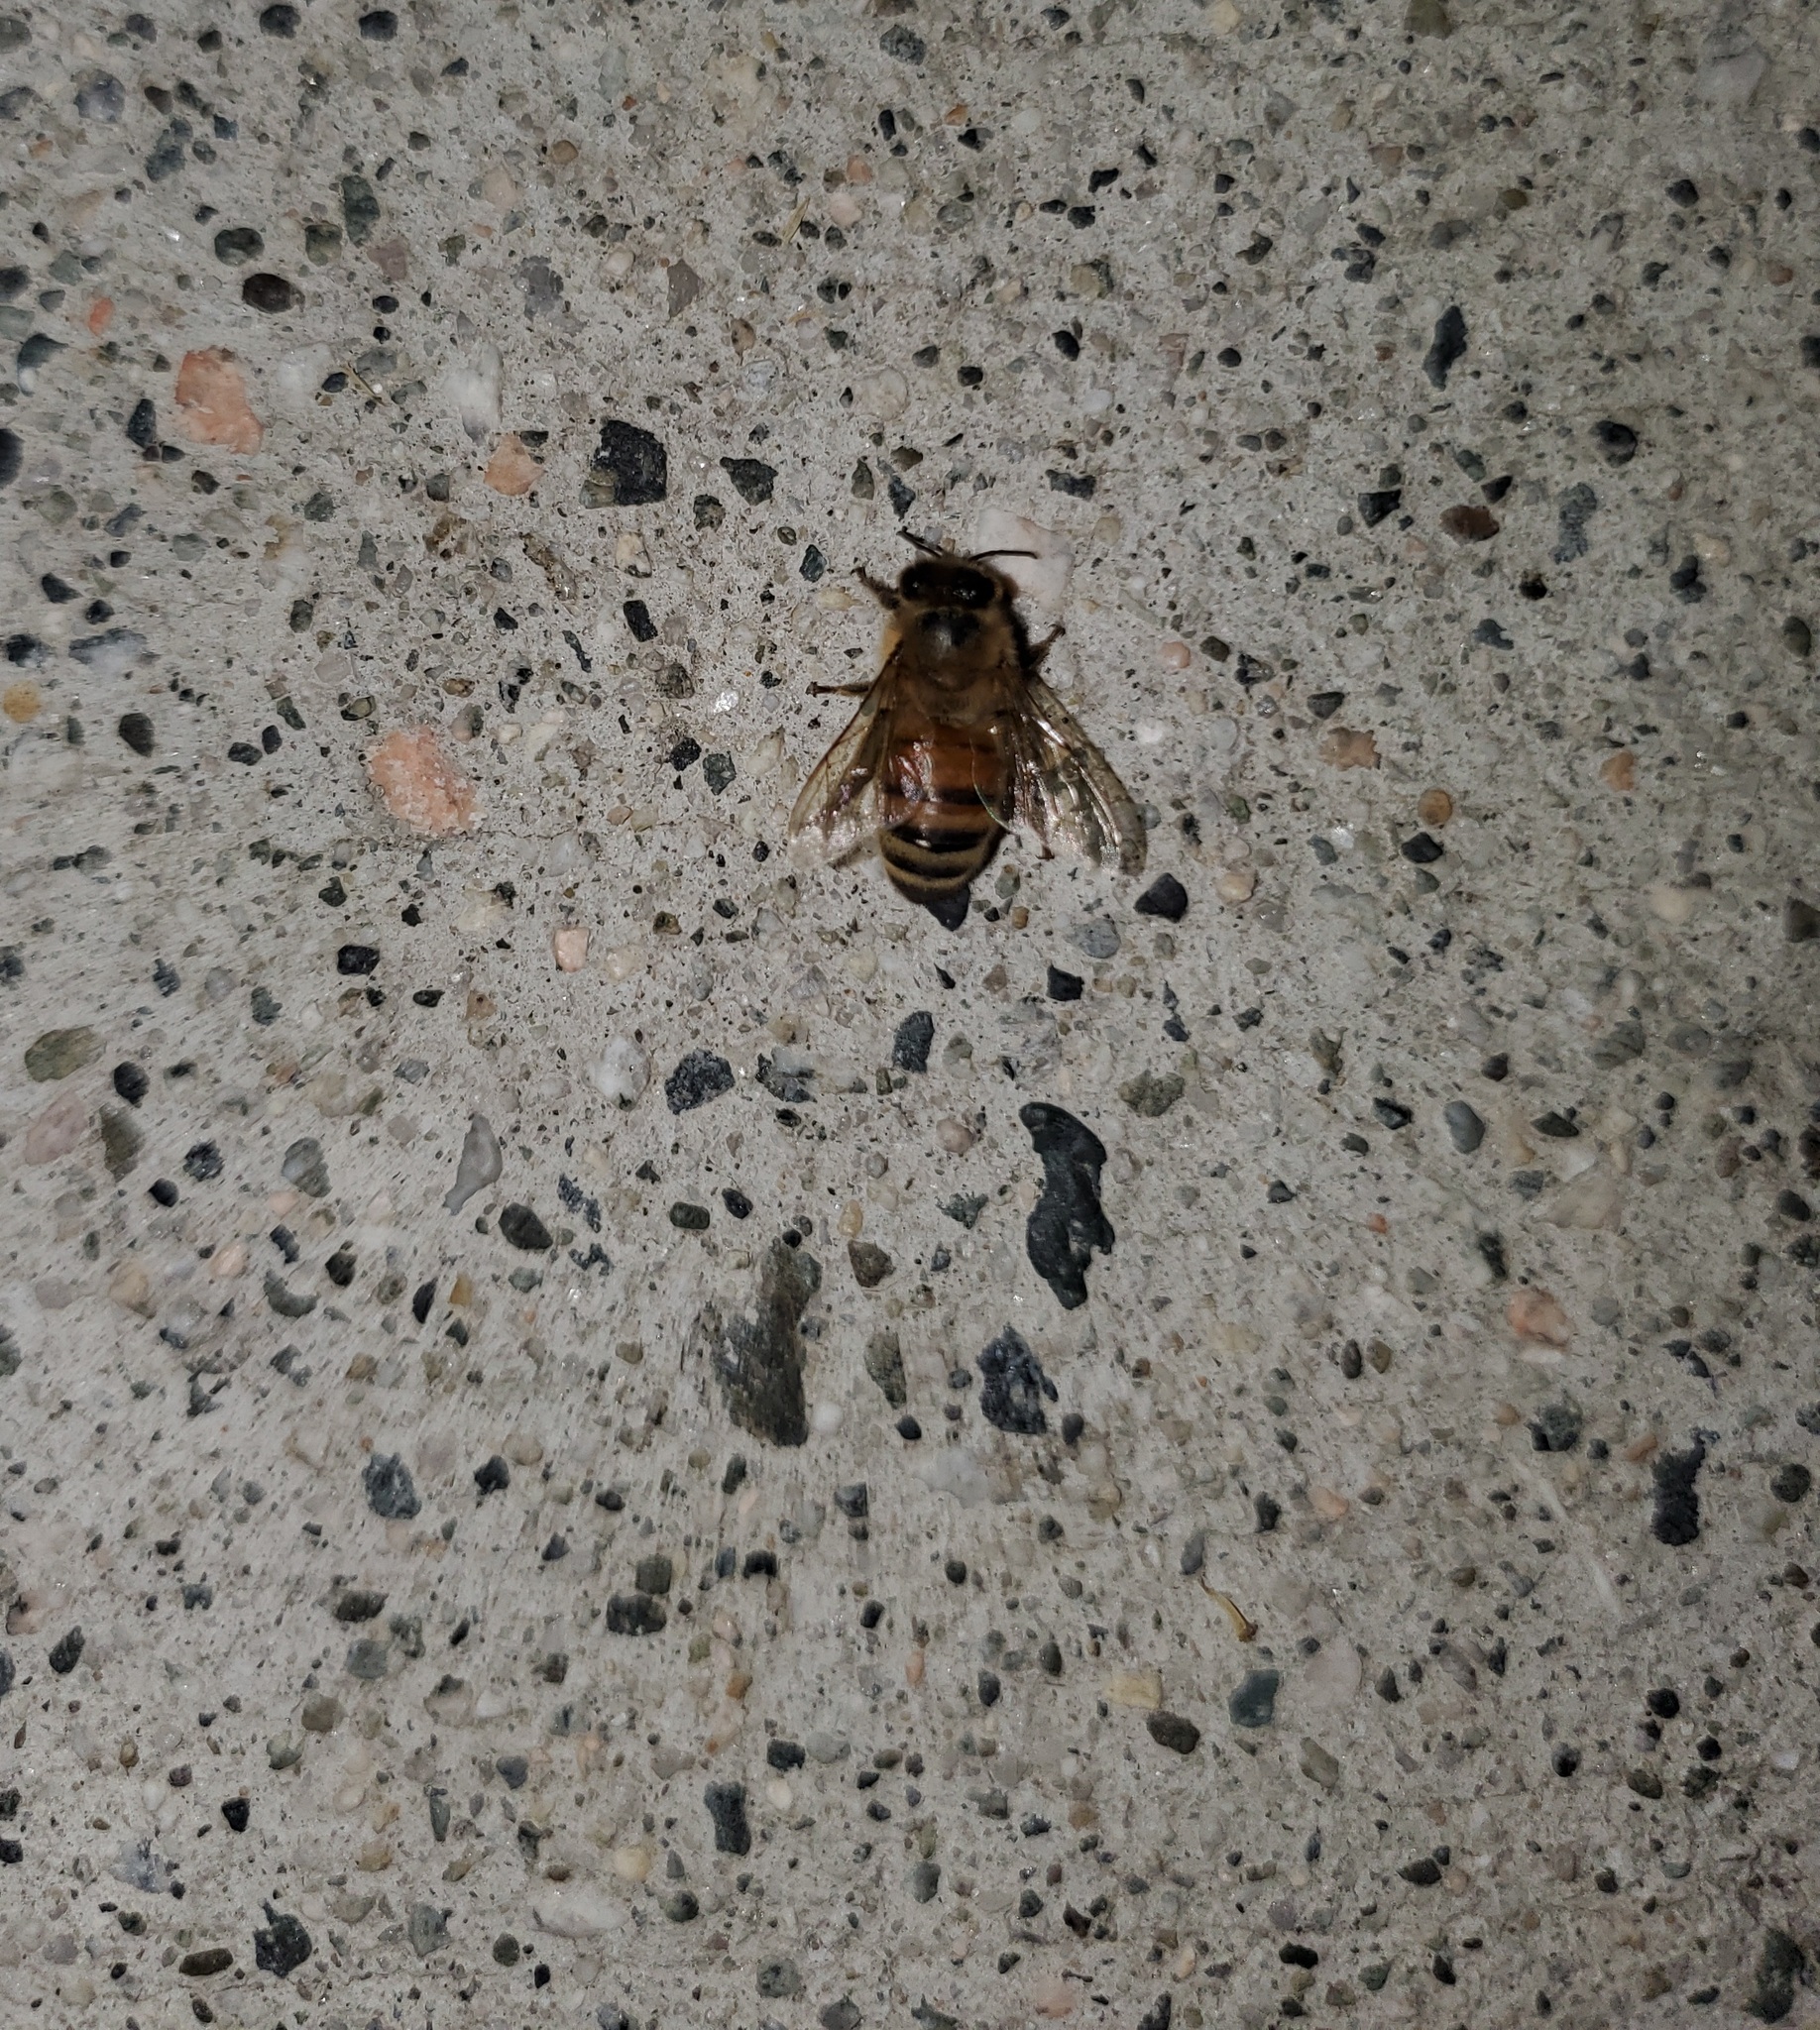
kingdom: Animalia
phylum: Arthropoda
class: Insecta
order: Hymenoptera
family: Apidae
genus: Apis
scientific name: Apis mellifera
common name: Honey bee
